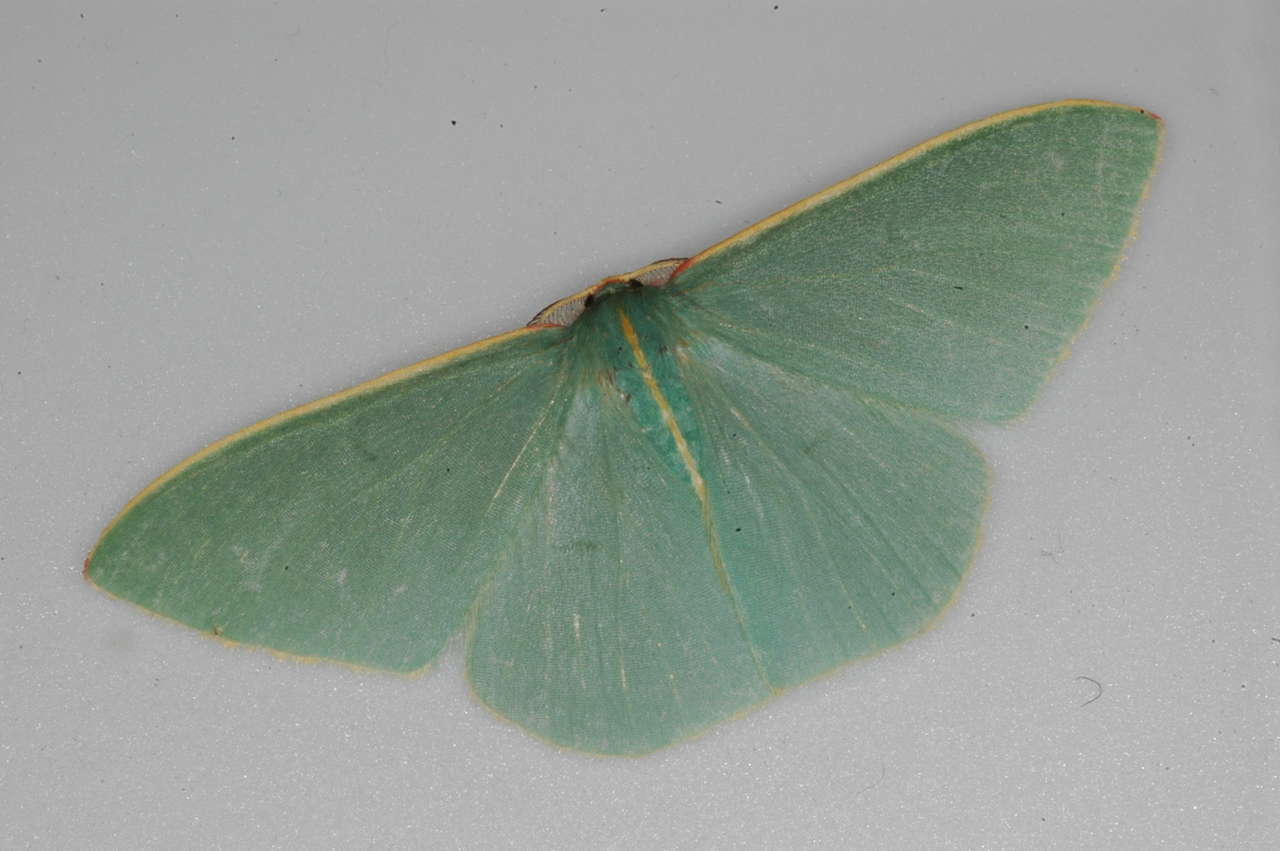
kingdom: Animalia
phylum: Arthropoda
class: Insecta
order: Lepidoptera
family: Geometridae
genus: Chlorocoma
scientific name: Chlorocoma assimilis
